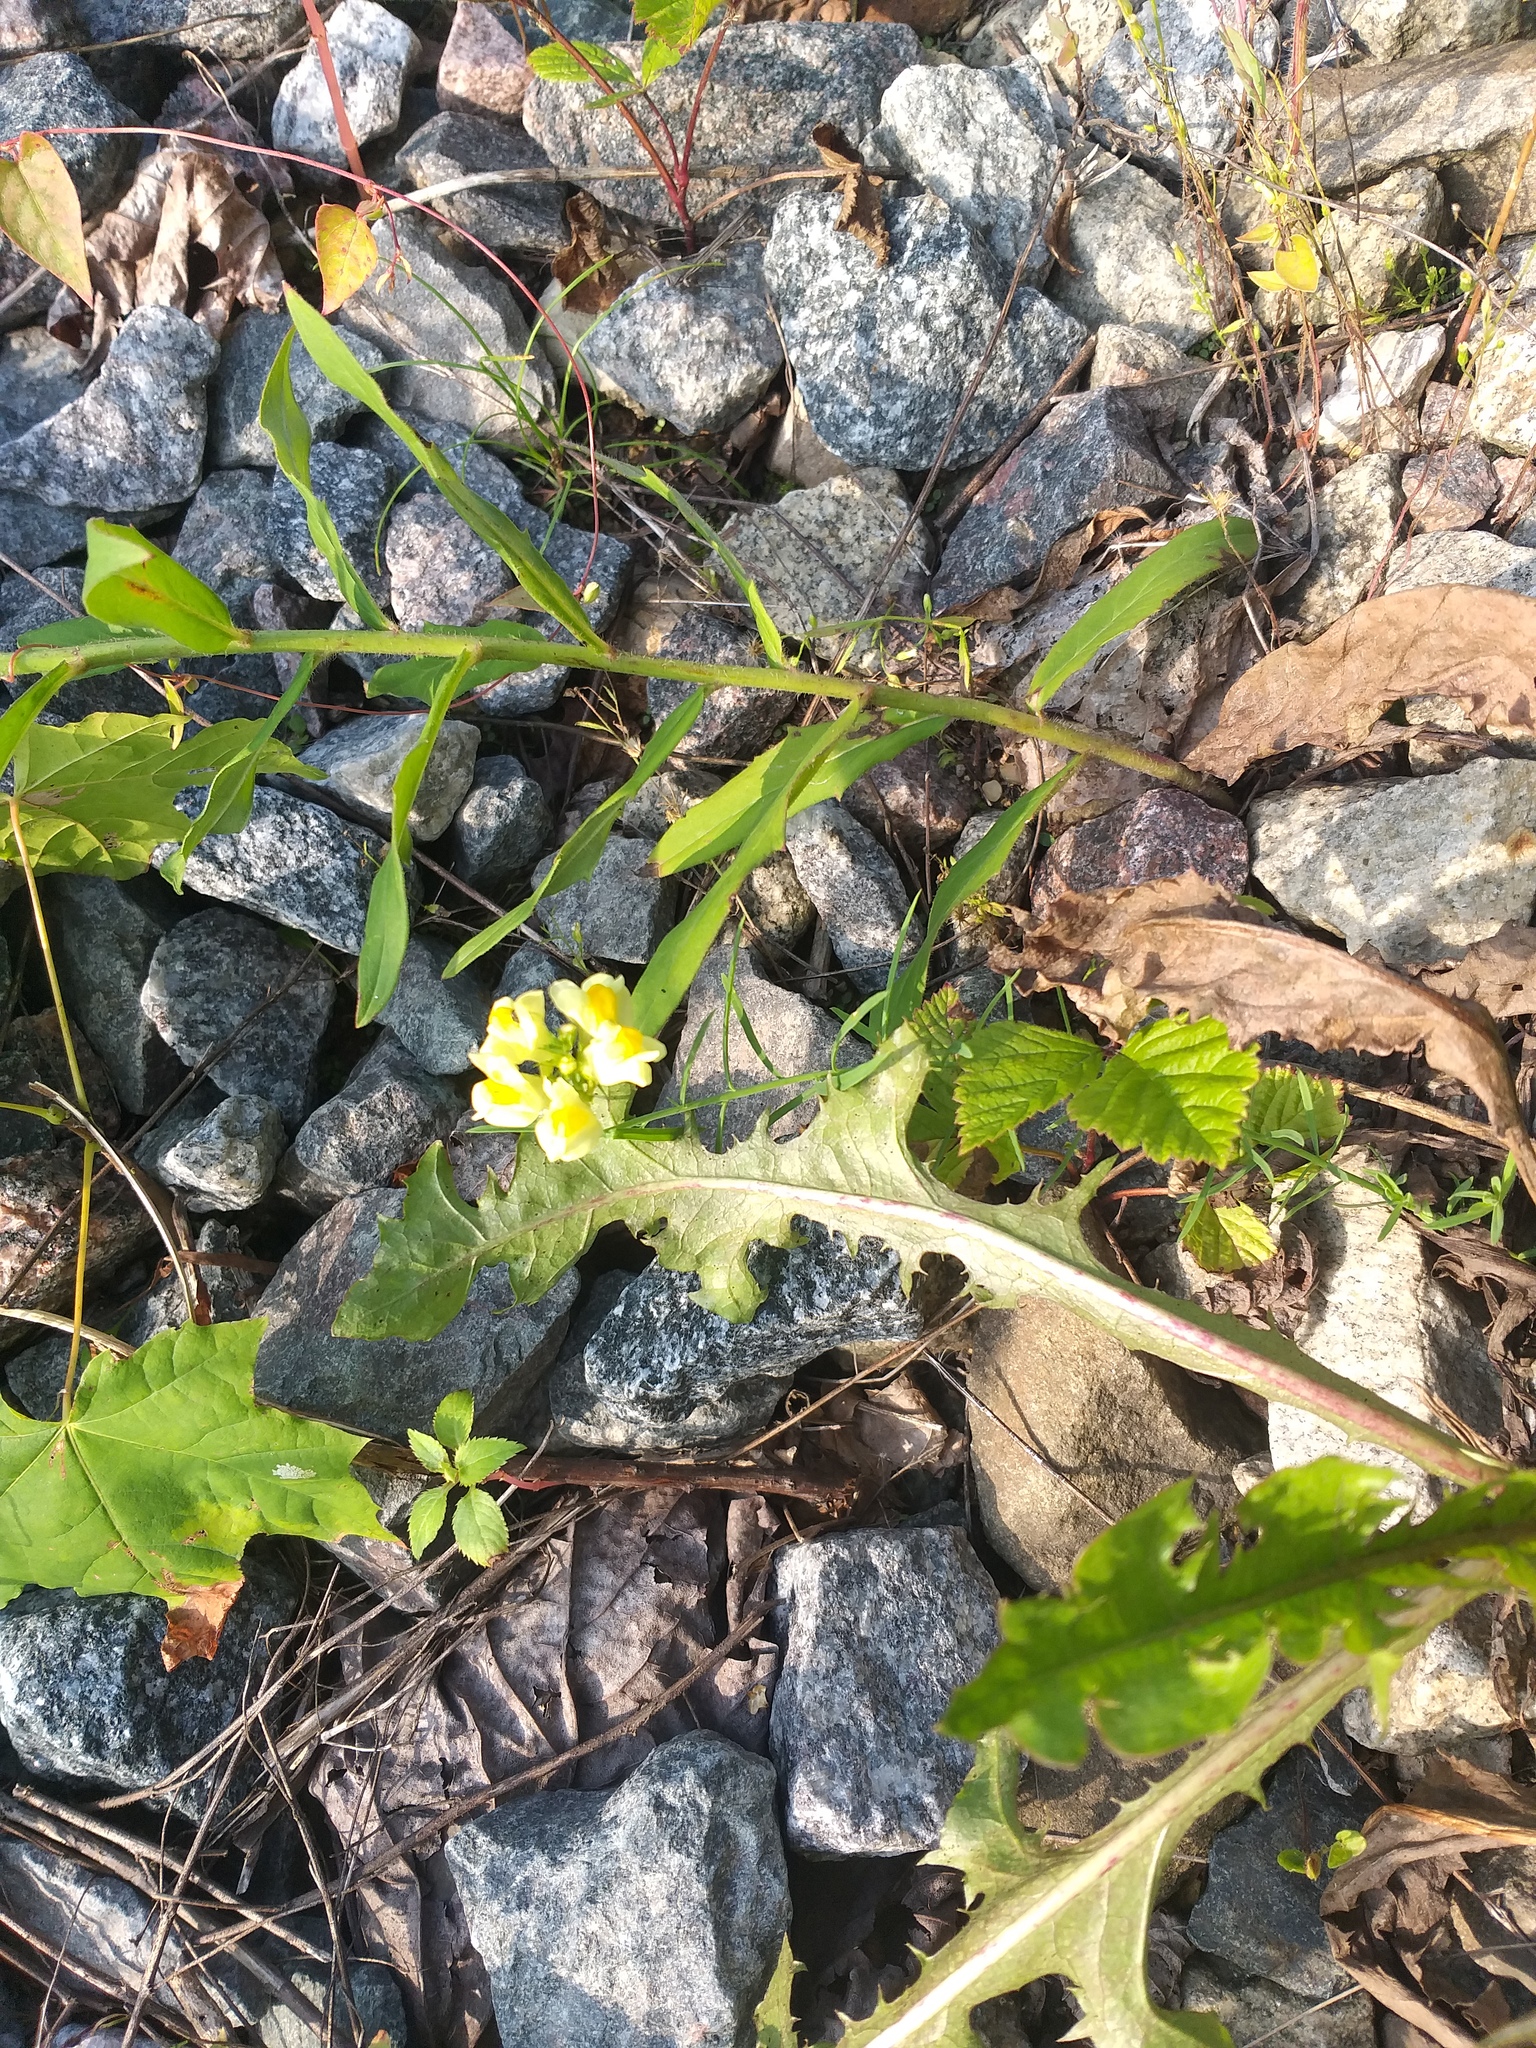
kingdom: Plantae
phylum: Tracheophyta
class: Magnoliopsida
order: Lamiales
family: Plantaginaceae
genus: Linaria
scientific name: Linaria vulgaris
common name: Butter and eggs
